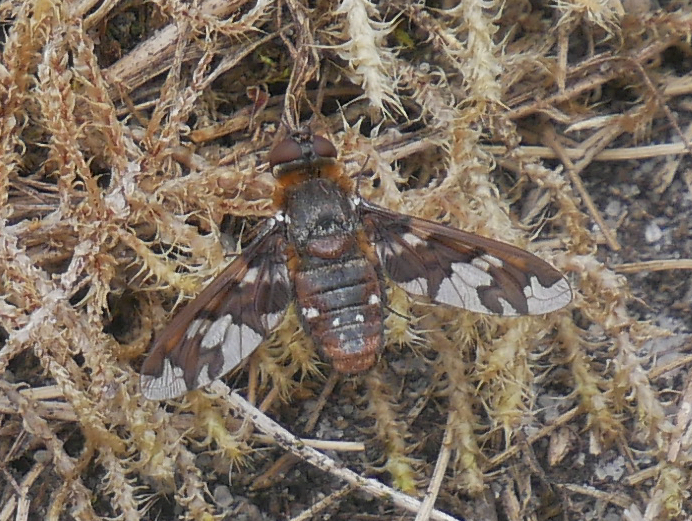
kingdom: Animalia
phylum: Arthropoda
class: Insecta
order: Diptera
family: Bombyliidae
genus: Exoprosopa
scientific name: Exoprosopa capucina
